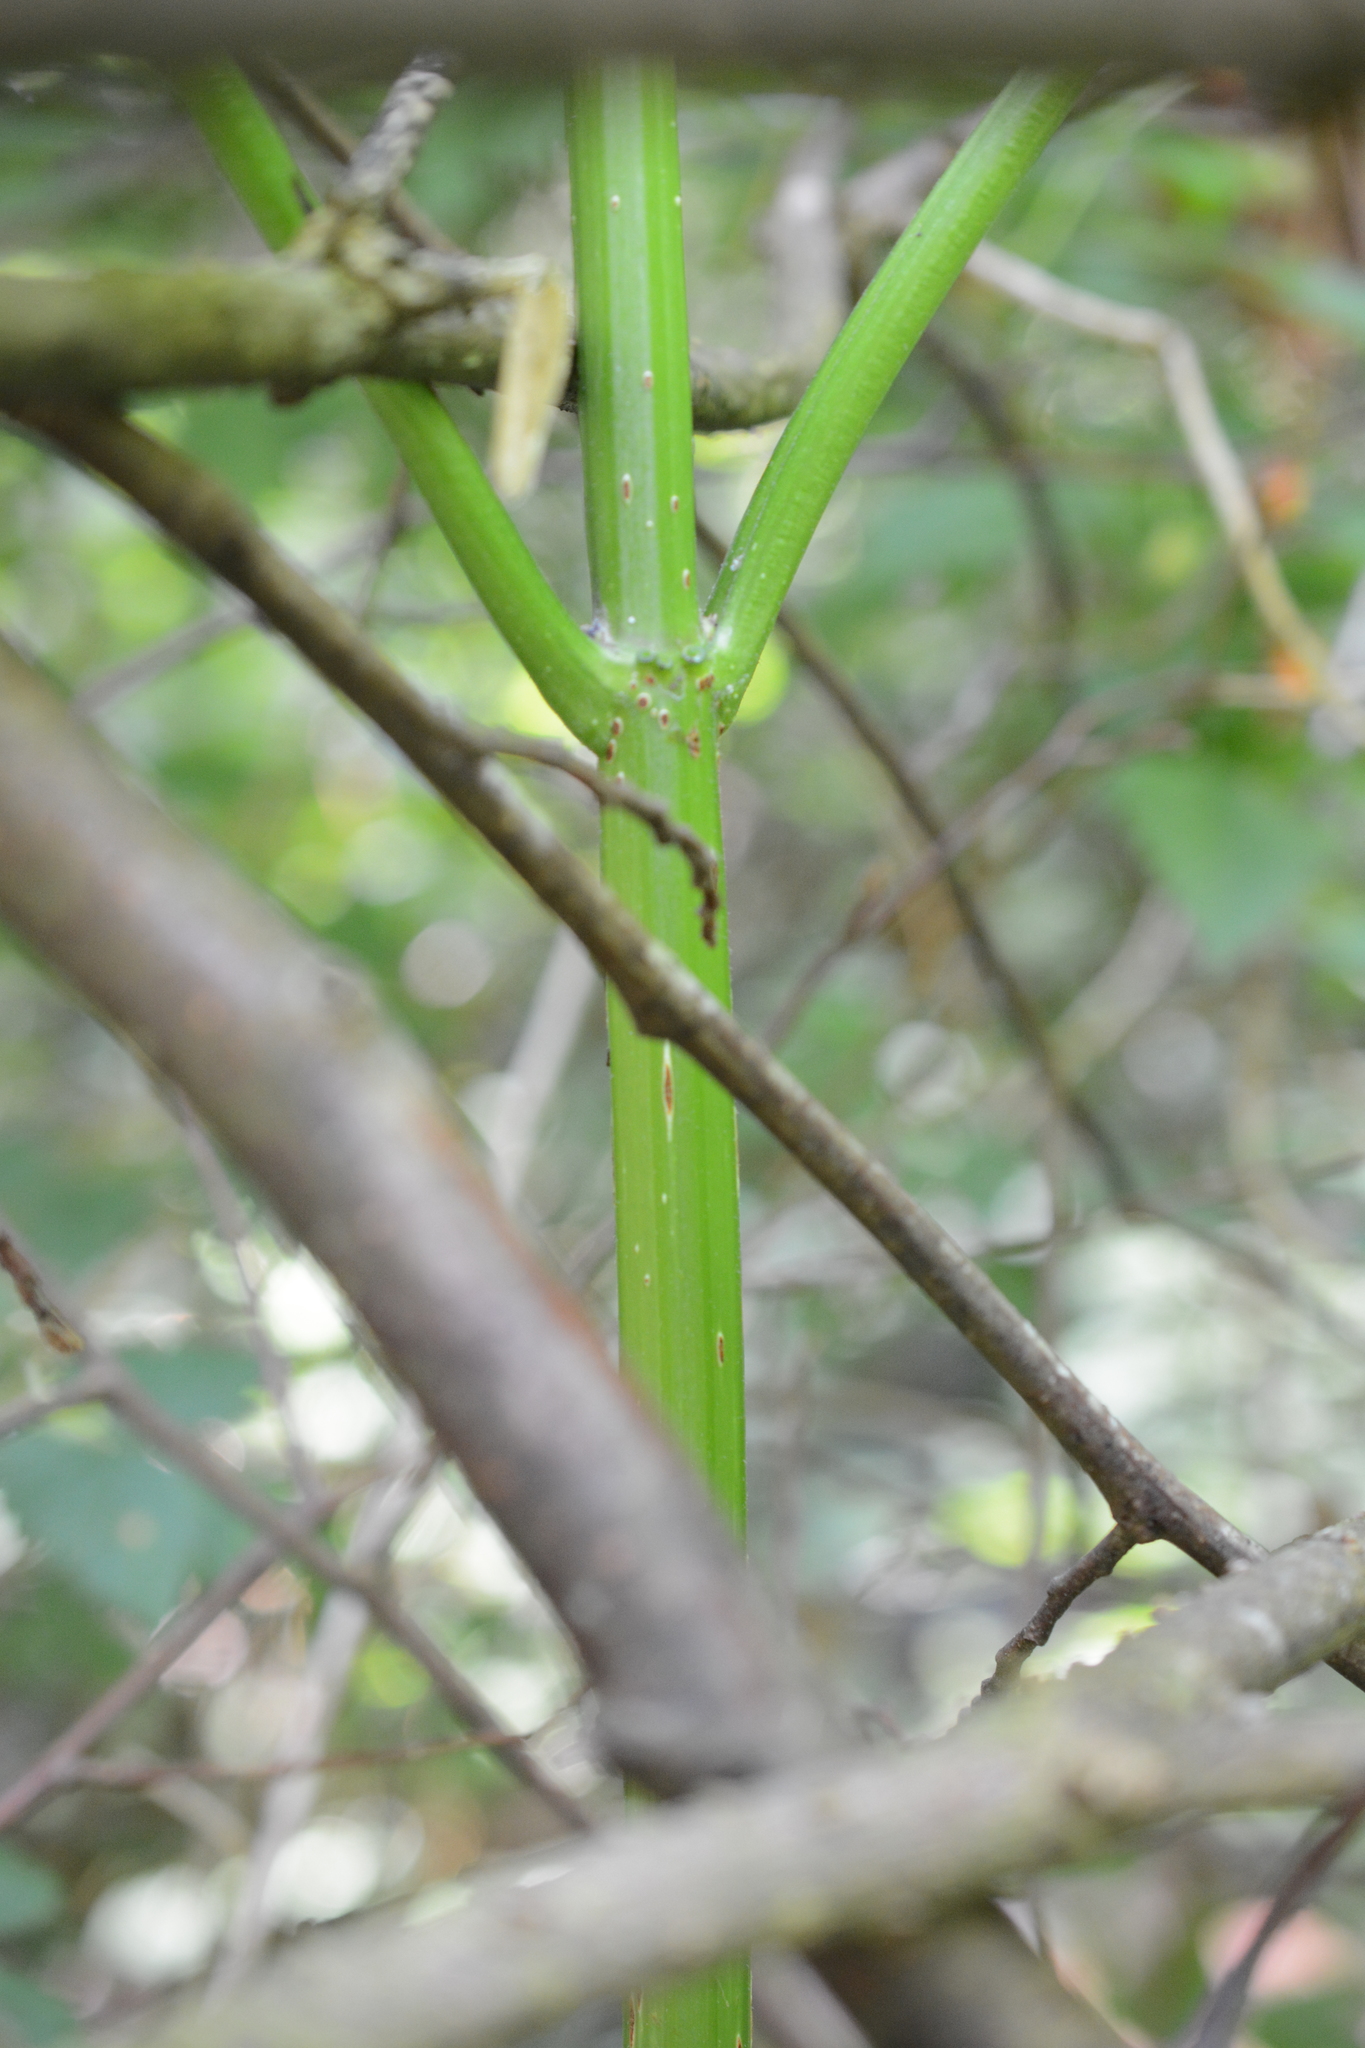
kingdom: Plantae
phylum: Tracheophyta
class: Magnoliopsida
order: Dipsacales
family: Viburnaceae
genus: Sambucus
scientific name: Sambucus racemosa
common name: Red-berried elder
